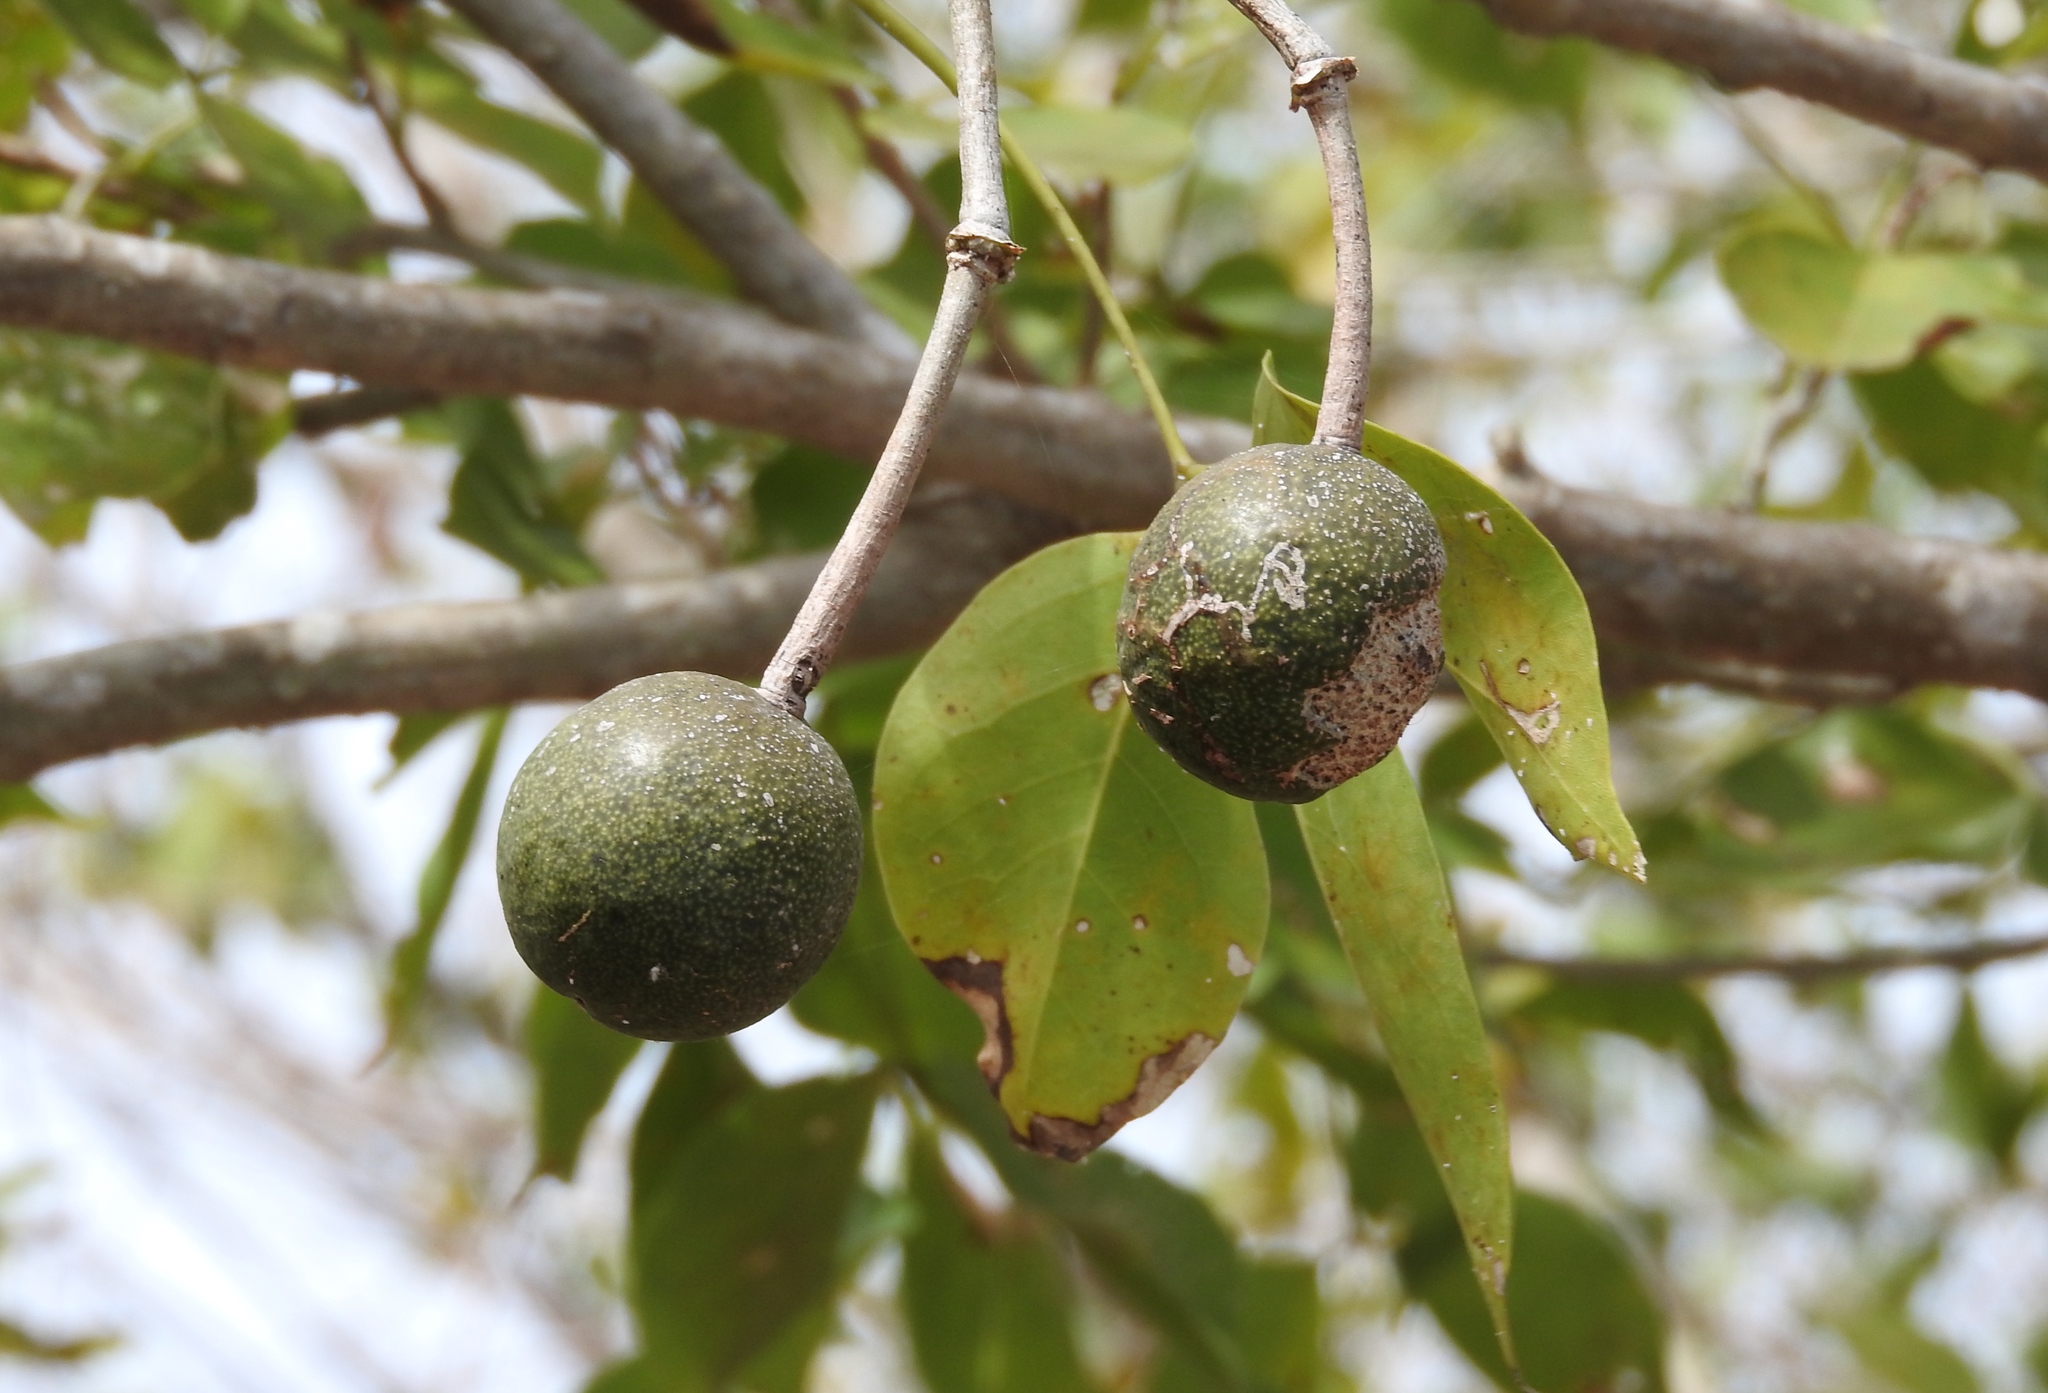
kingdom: Plantae
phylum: Tracheophyta
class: Magnoliopsida
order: Brassicales
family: Capparaceae
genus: Crateva
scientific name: Crateva tapia
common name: Garlic-pear
